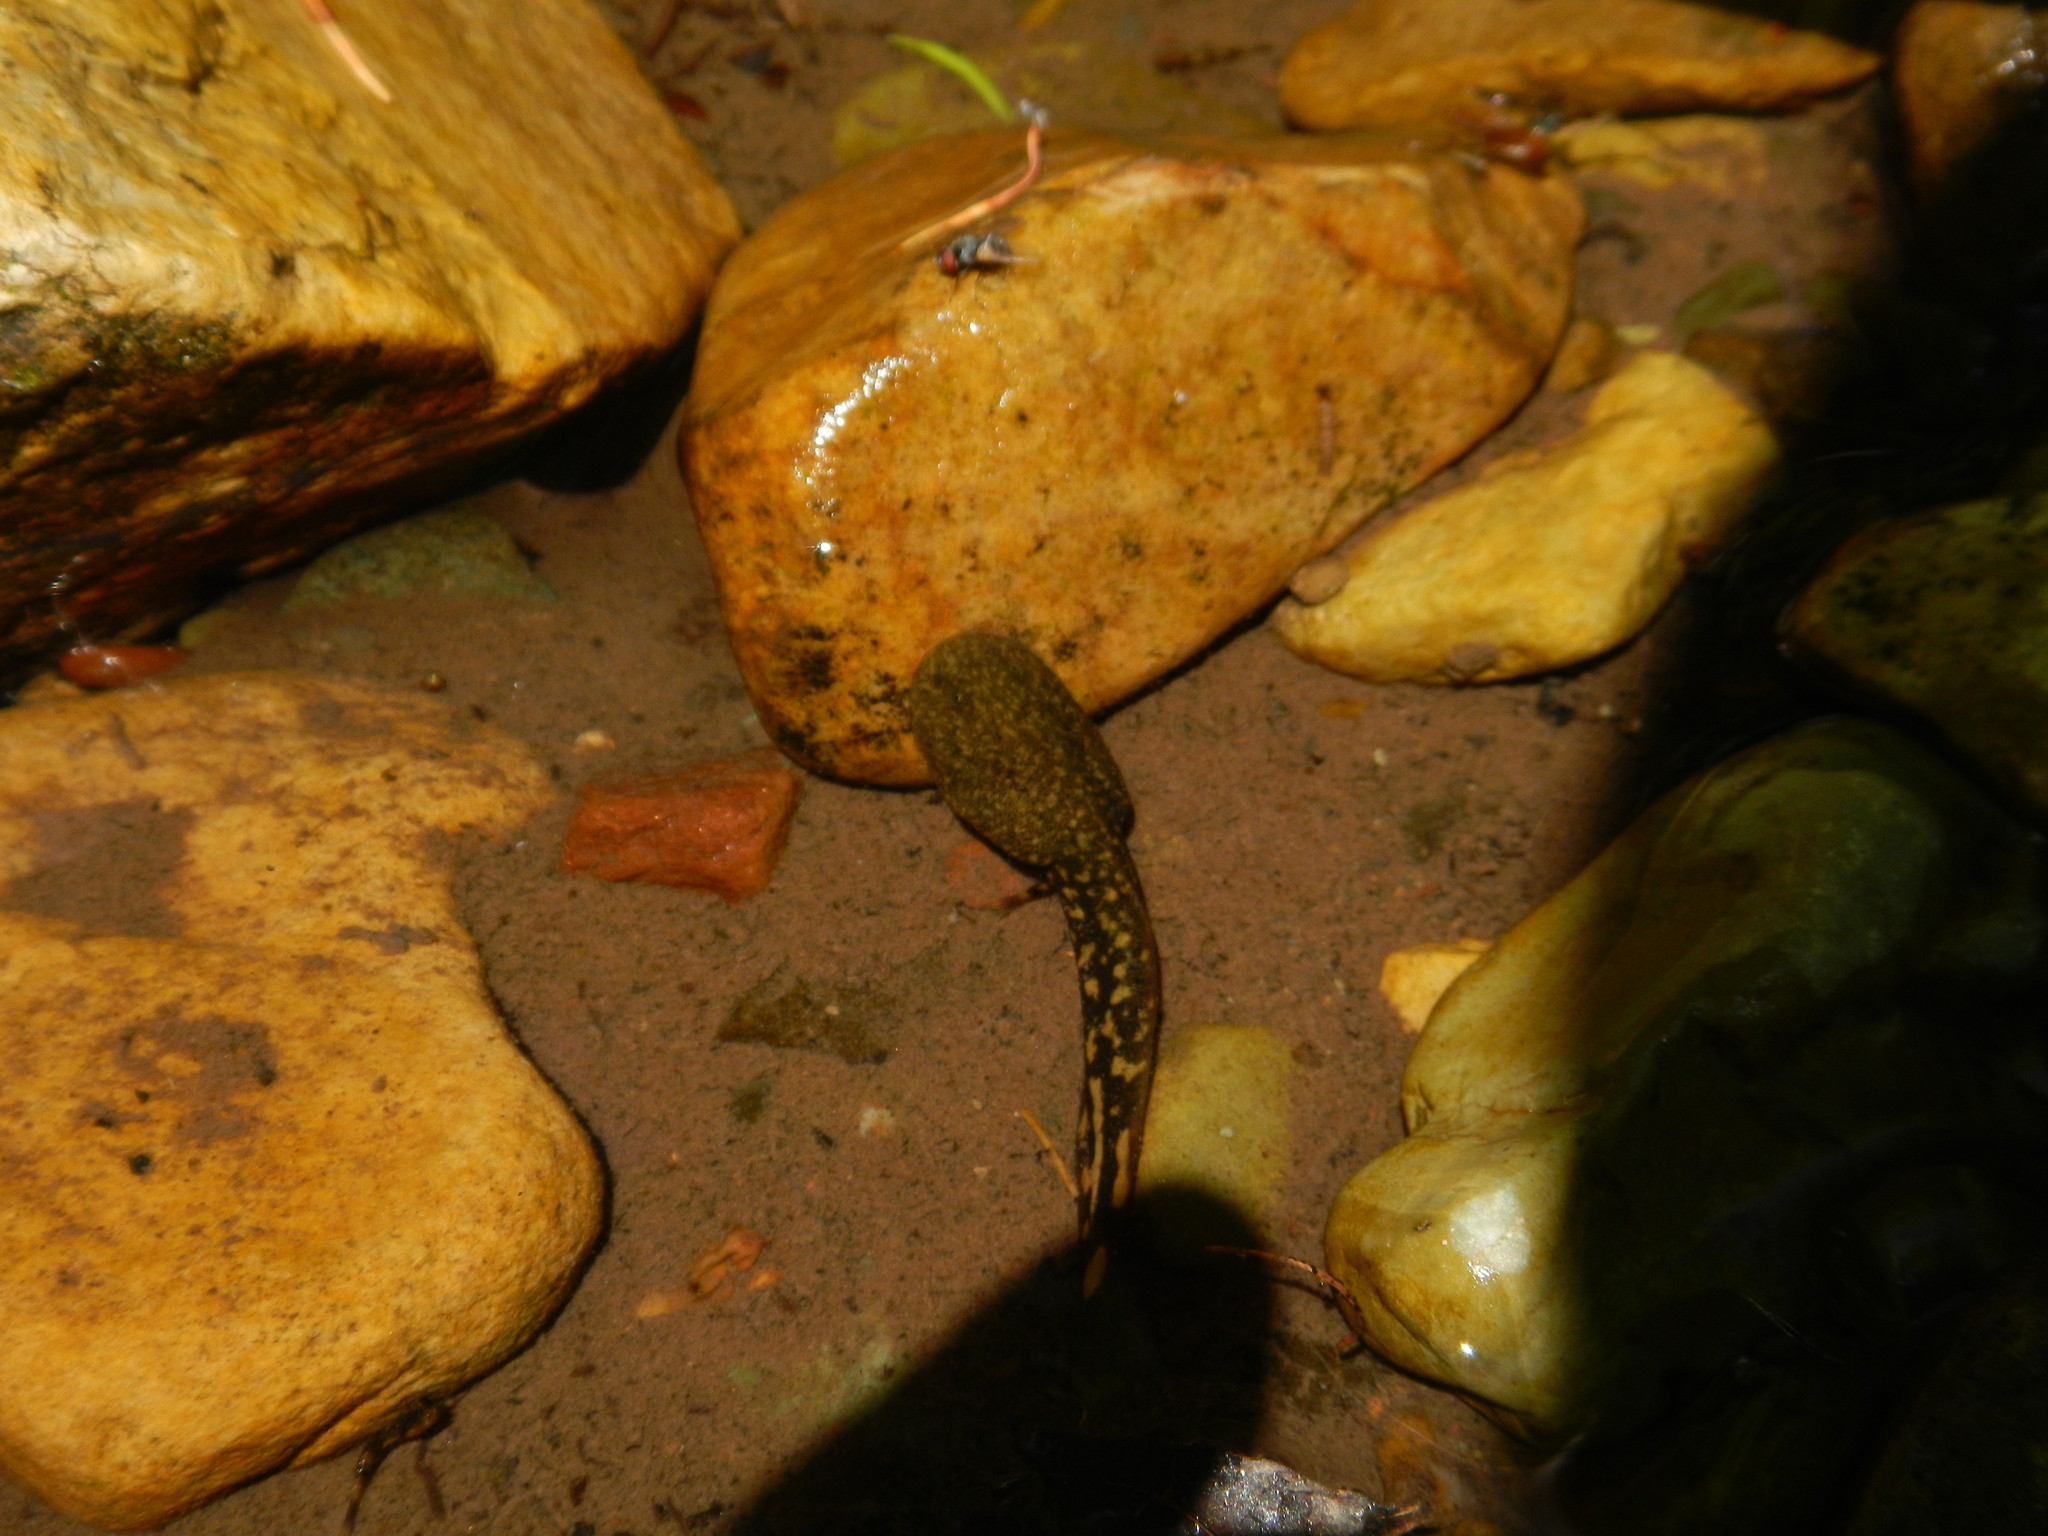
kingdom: Animalia
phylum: Chordata
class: Amphibia
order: Anura
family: Ascaphidae
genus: Ascaphus
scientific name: Ascaphus montanus
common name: Rocky mountain tailed frog
